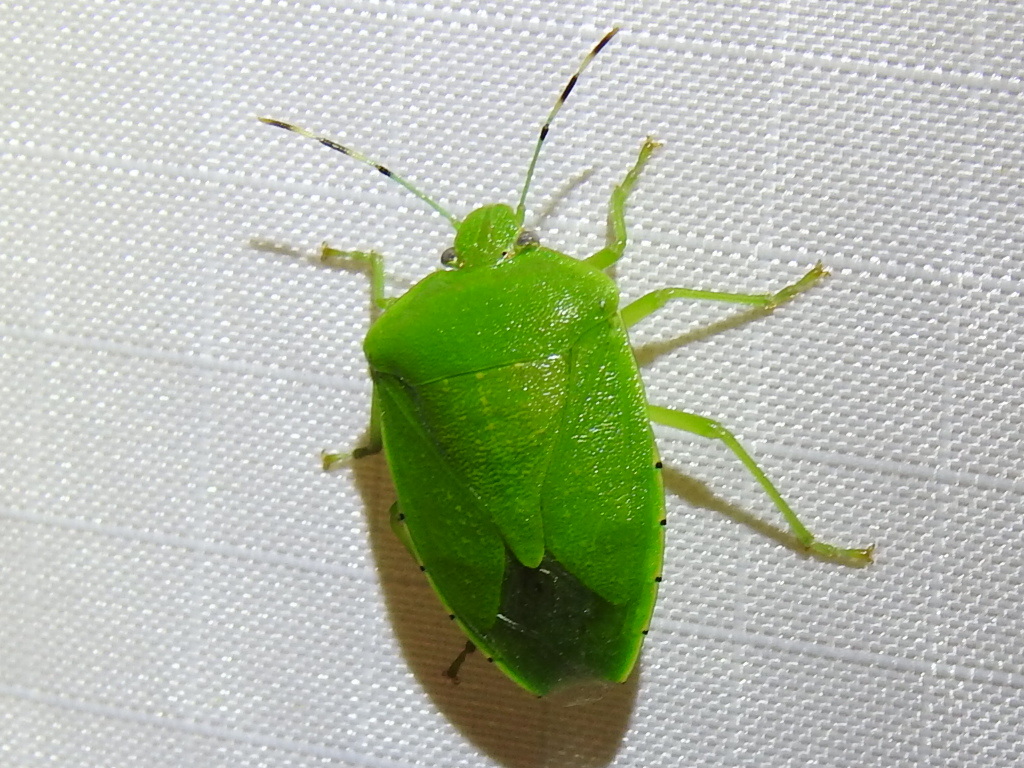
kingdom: Animalia
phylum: Arthropoda
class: Insecta
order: Hemiptera
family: Pentatomidae
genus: Chinavia
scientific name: Chinavia hilaris
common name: Green stink bug
